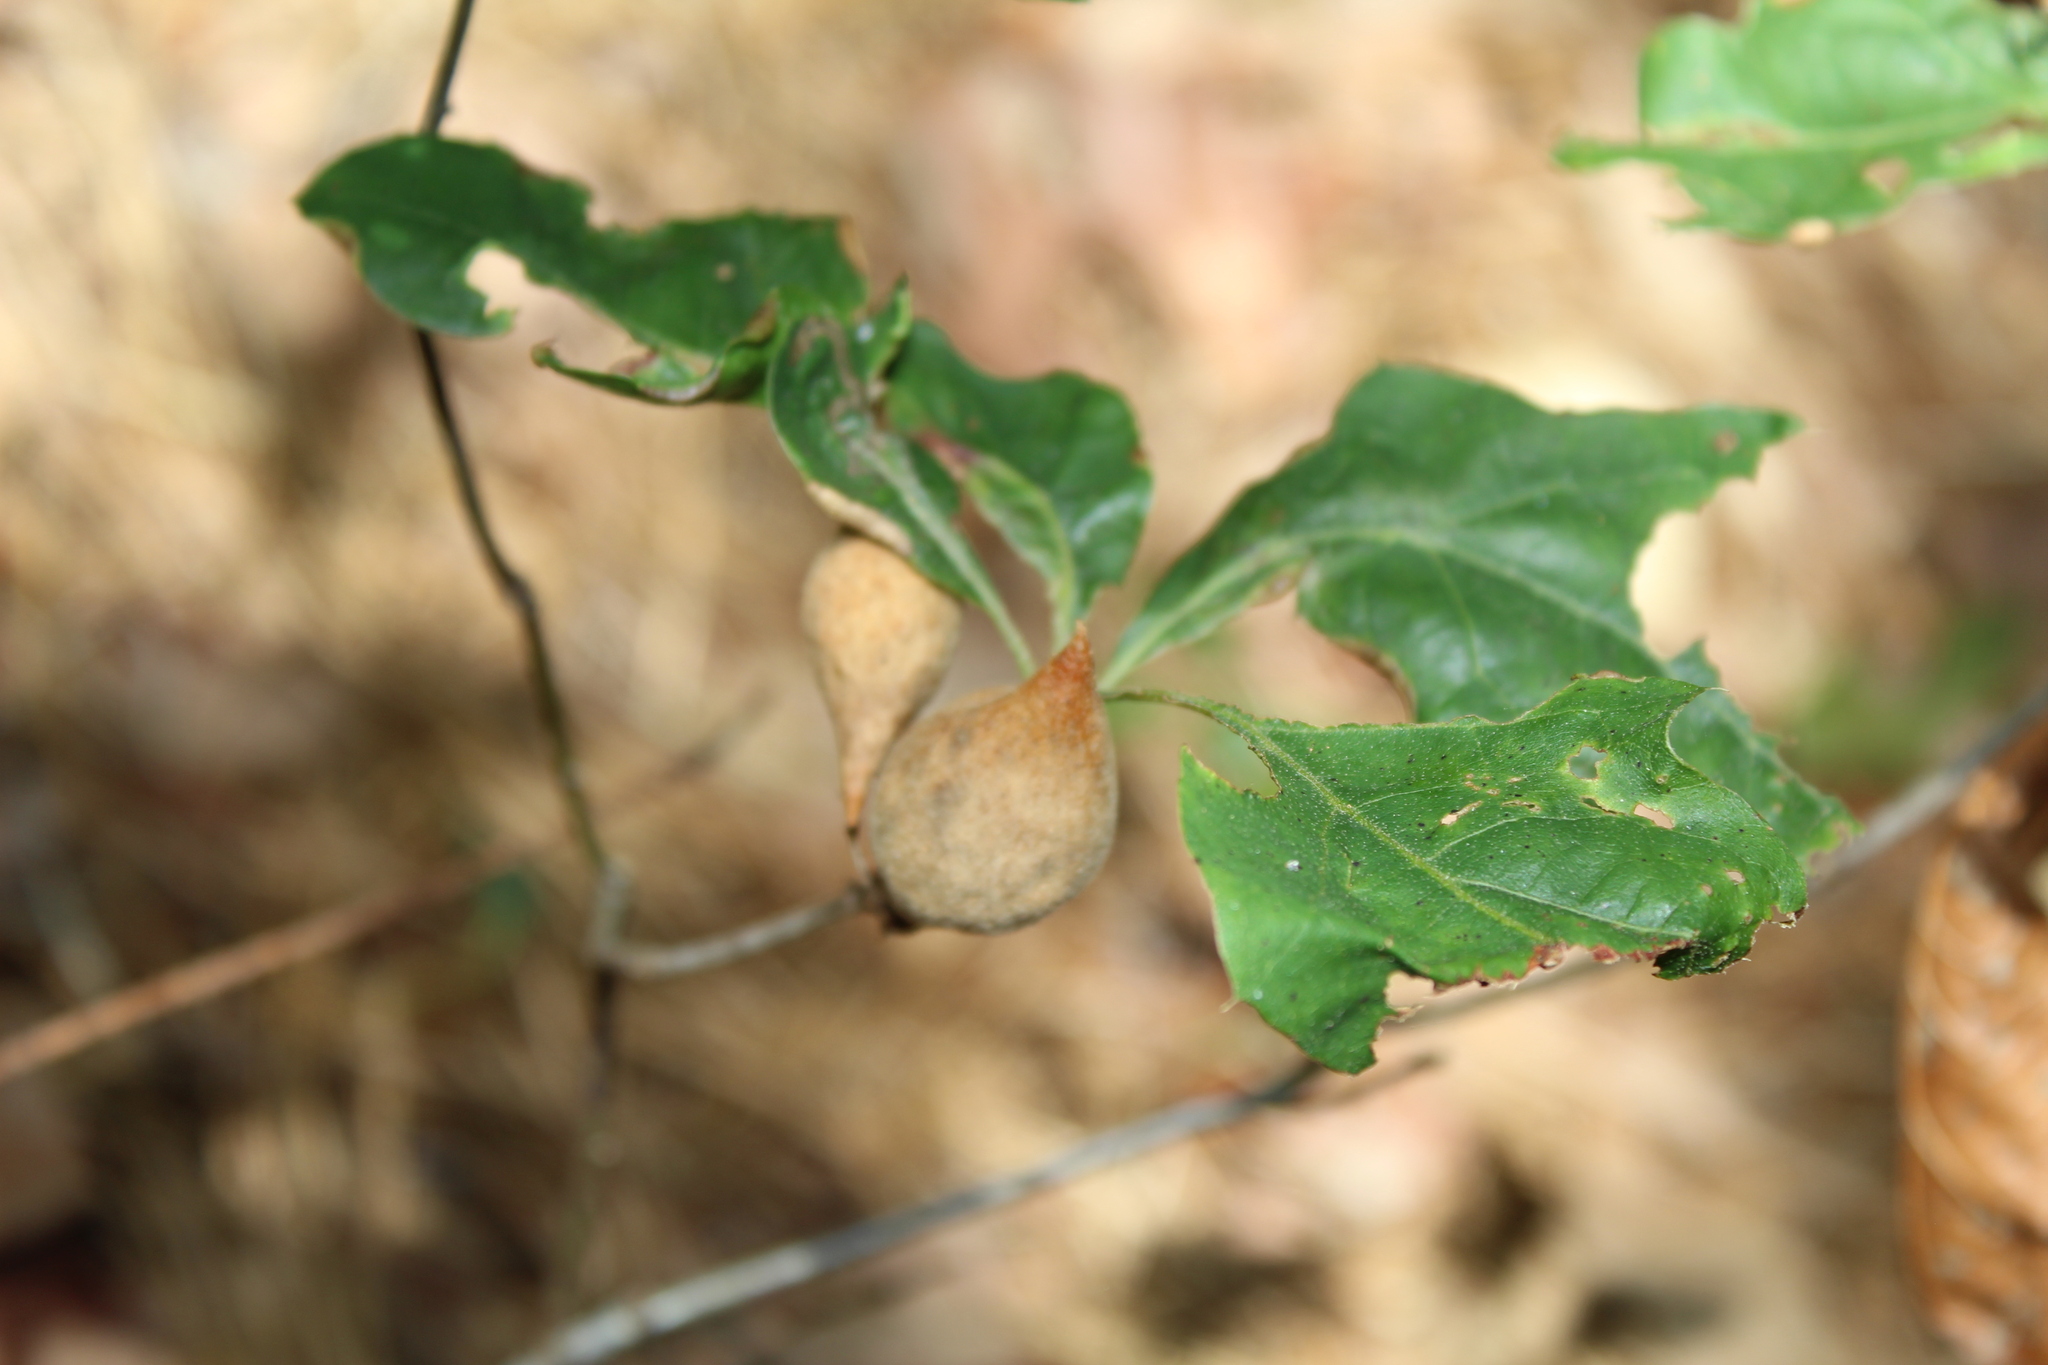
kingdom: Plantae
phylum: Tracheophyta
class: Magnoliopsida
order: Fagales
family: Fagaceae
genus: Quercus
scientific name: Quercus ilicifolia
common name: Bear oak
